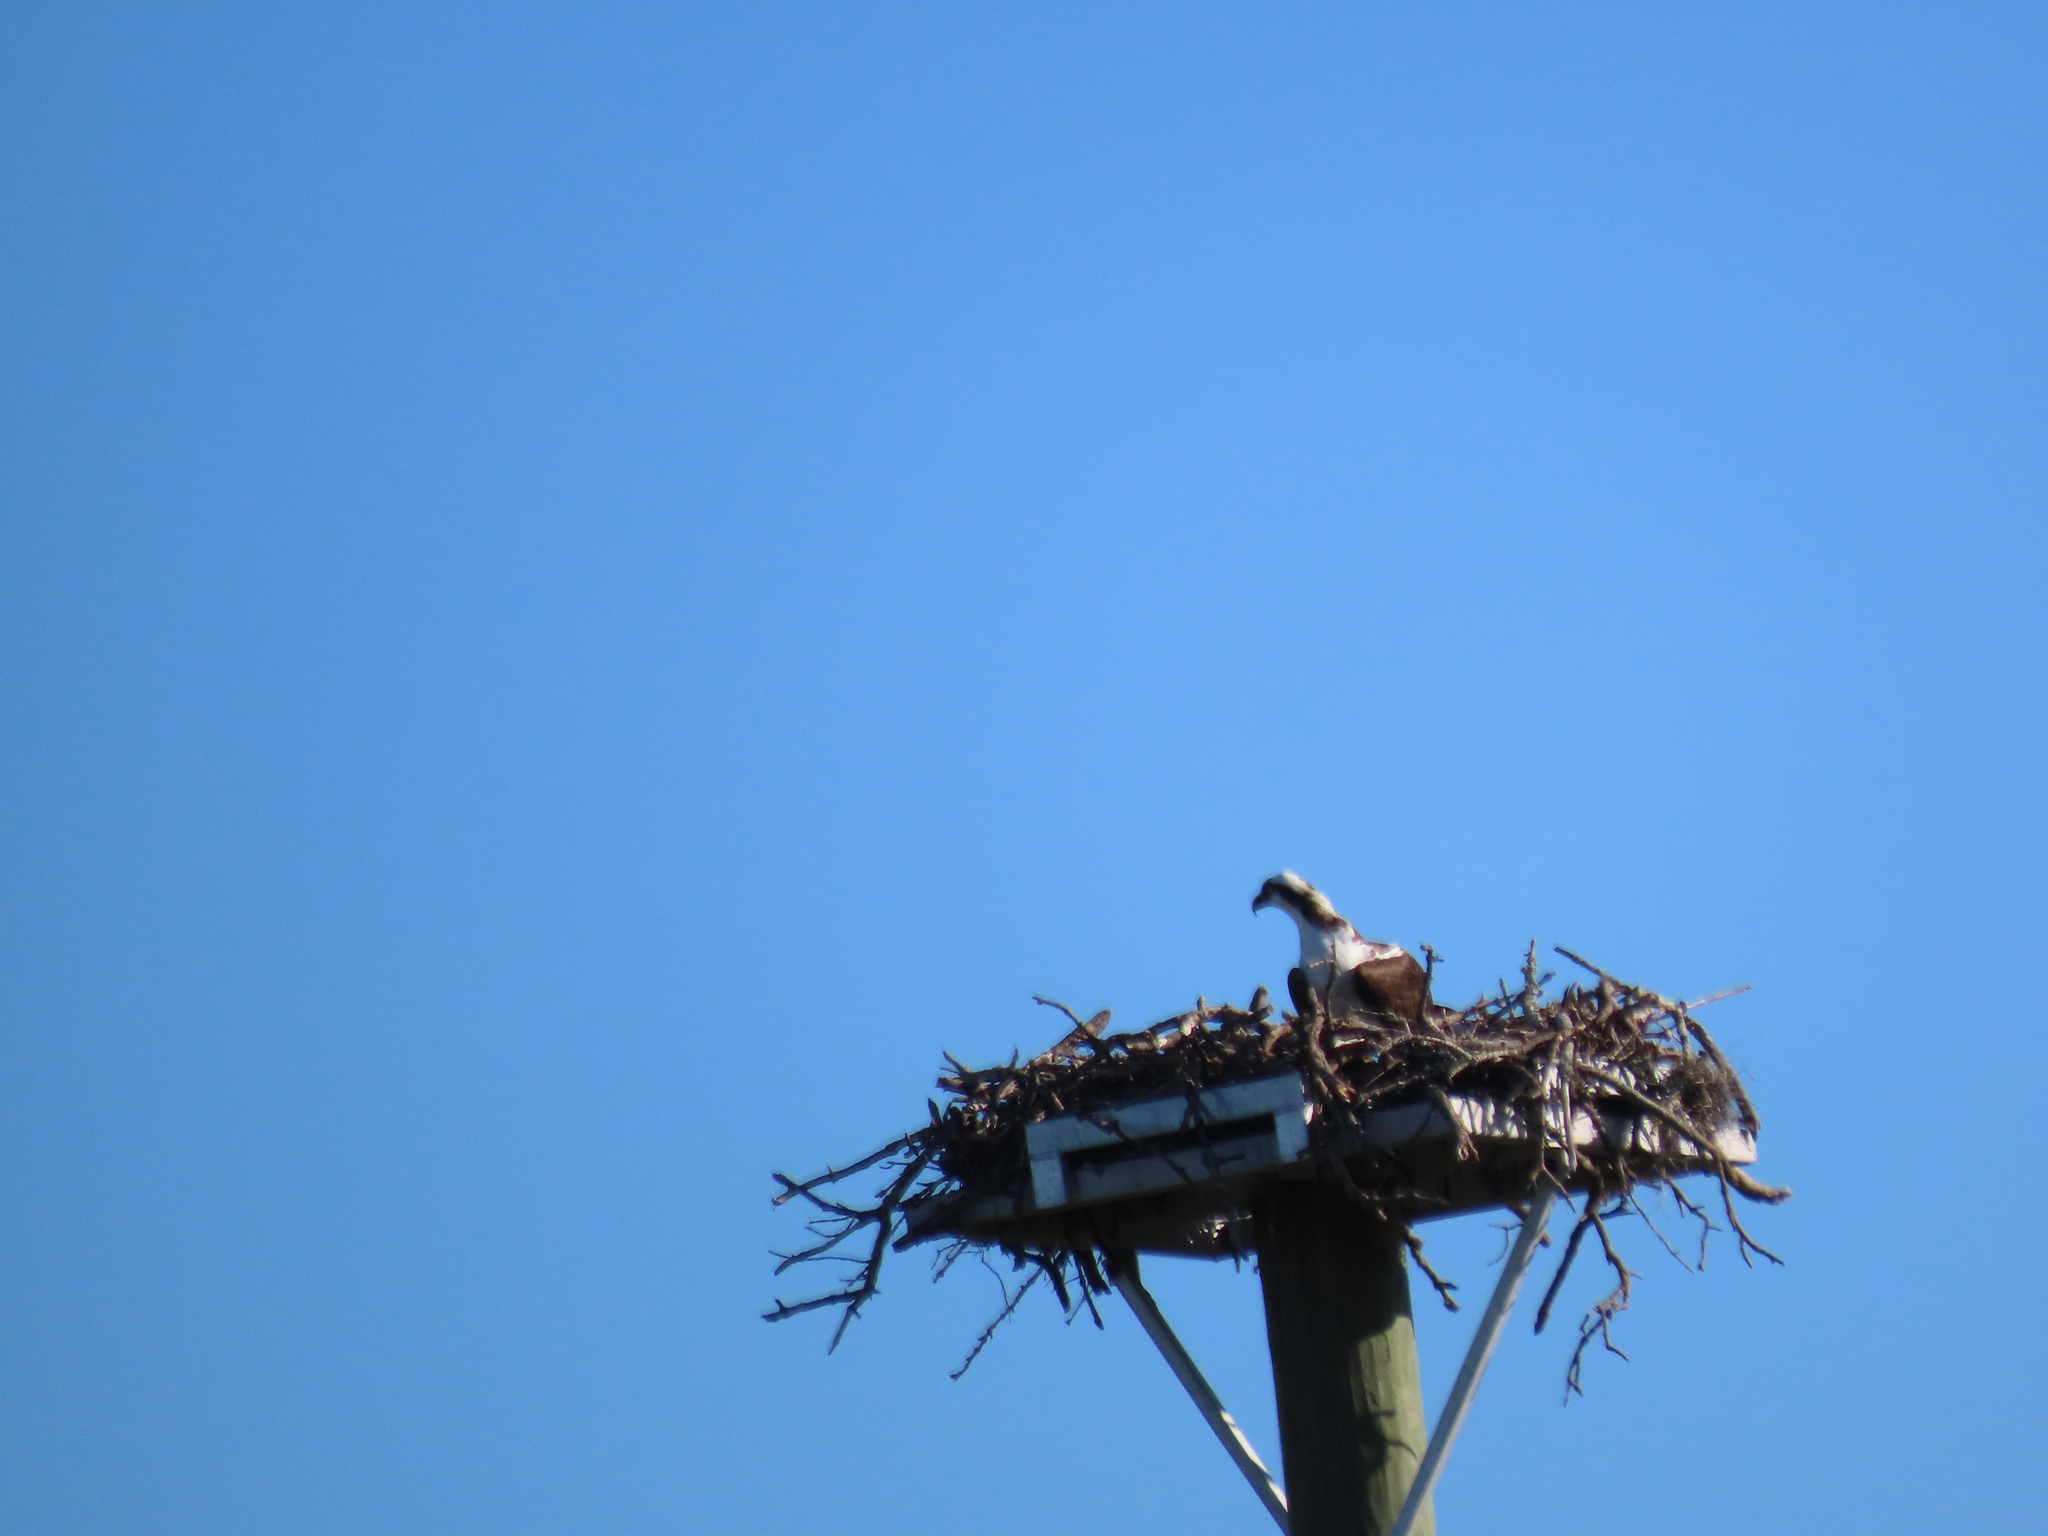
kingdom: Animalia
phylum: Chordata
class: Aves
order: Accipitriformes
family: Pandionidae
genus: Pandion
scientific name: Pandion haliaetus
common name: Osprey
